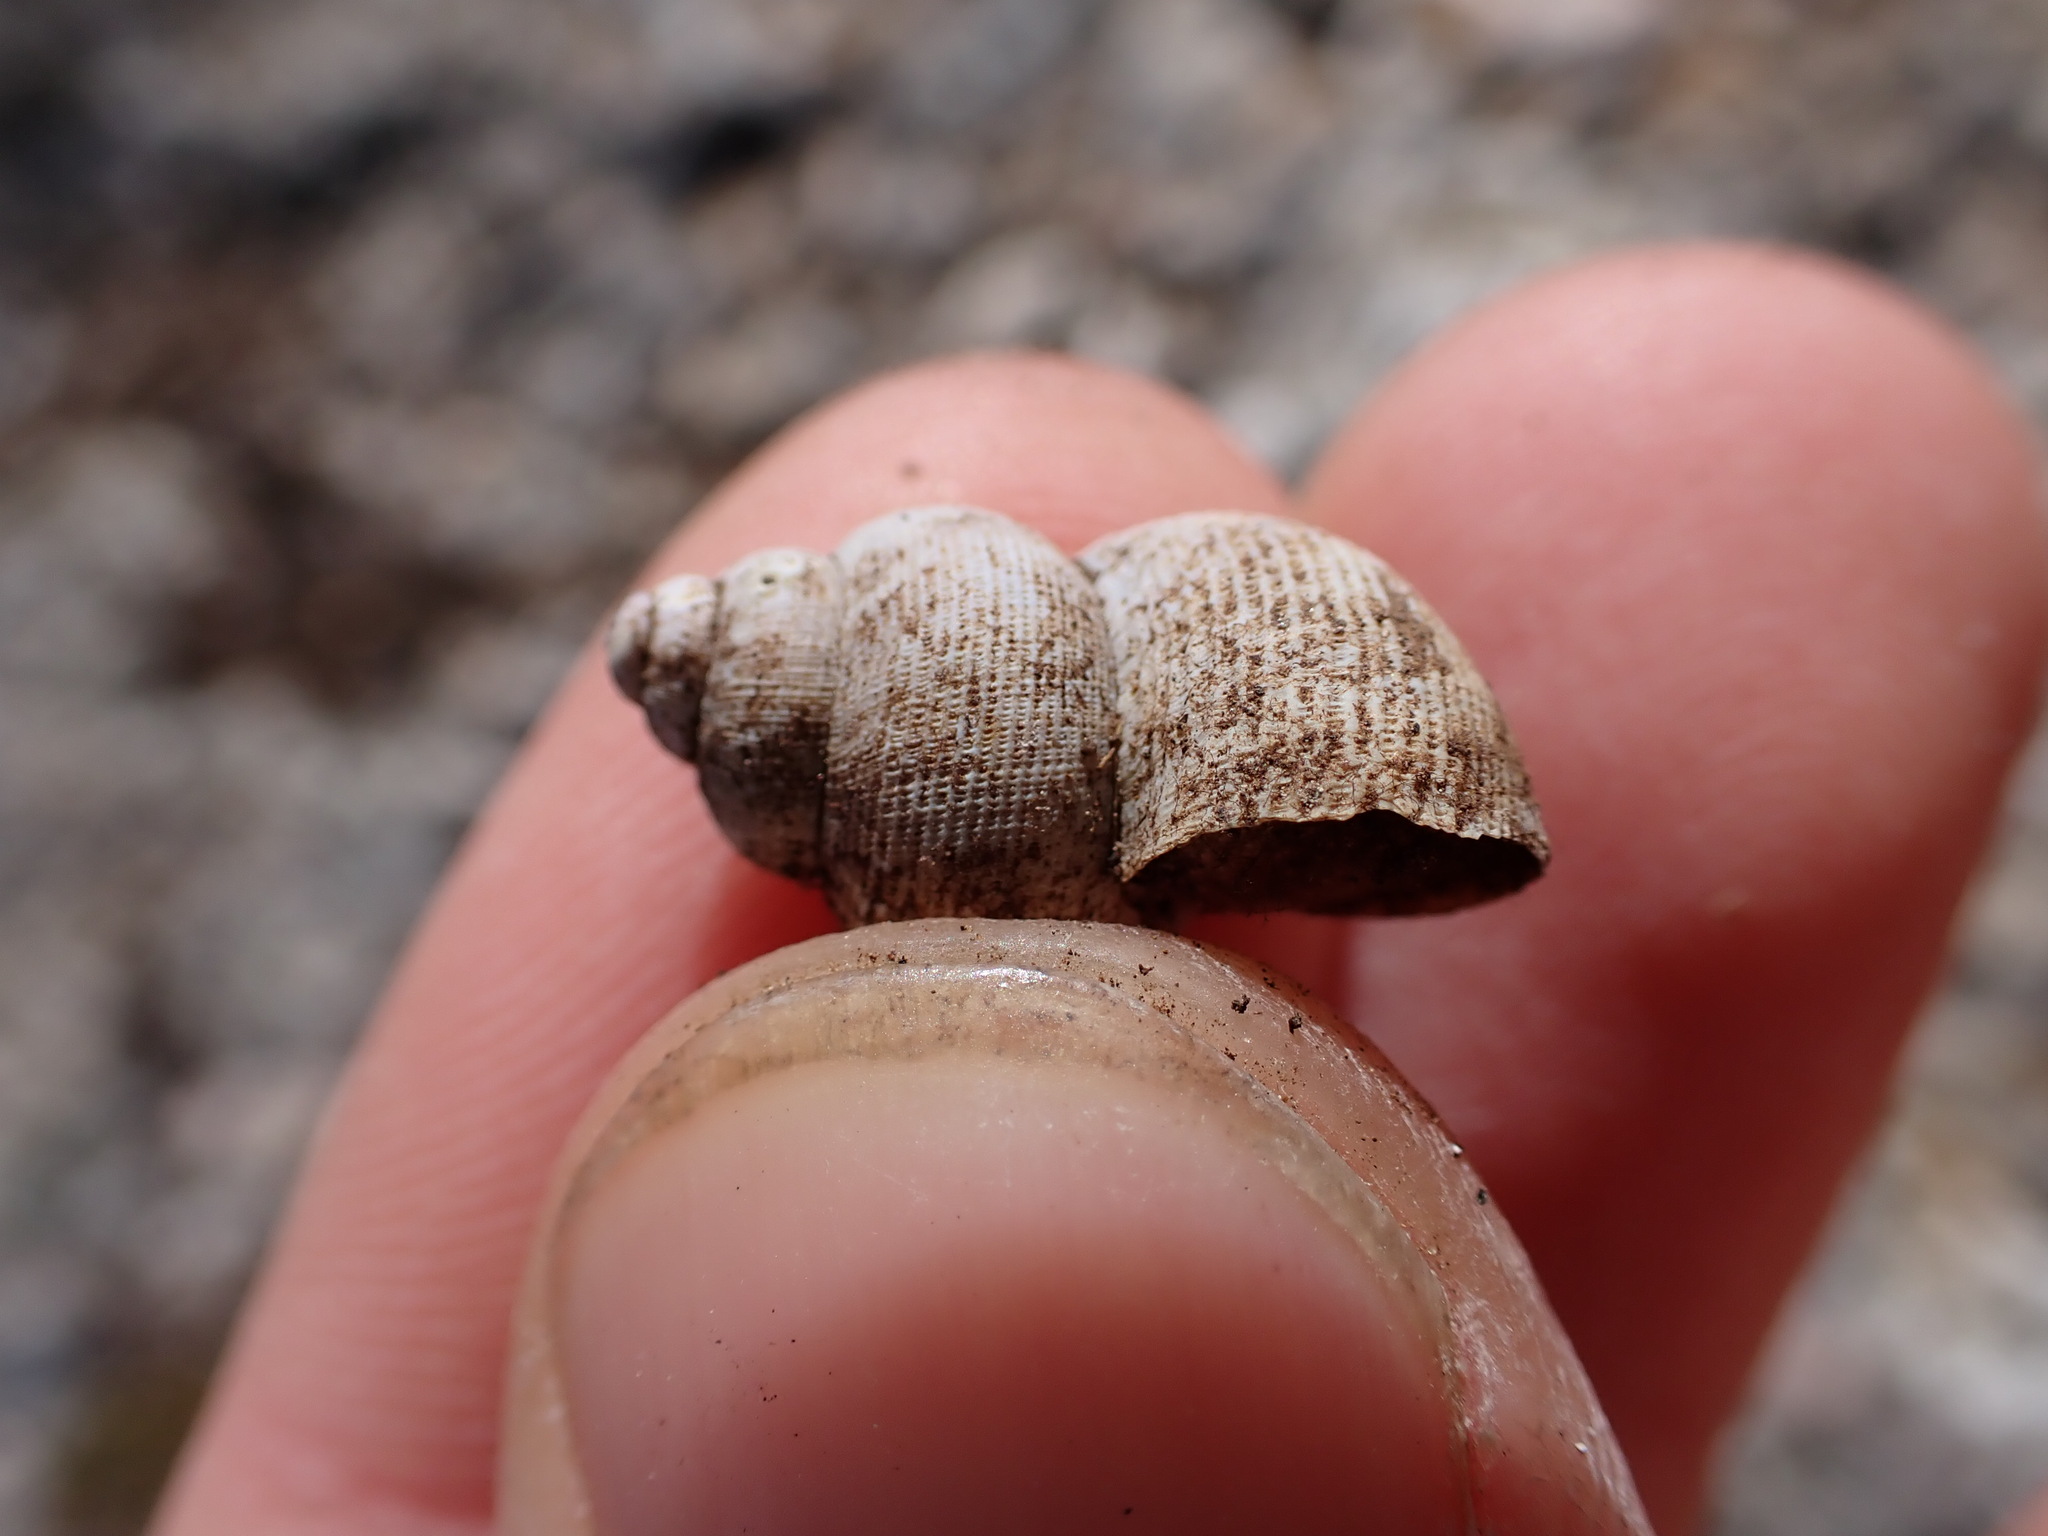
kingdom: Animalia
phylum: Mollusca
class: Gastropoda
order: Littorinimorpha
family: Pomatiidae
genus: Pomatias
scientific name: Pomatias elegans
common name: Red-mouthed snail
